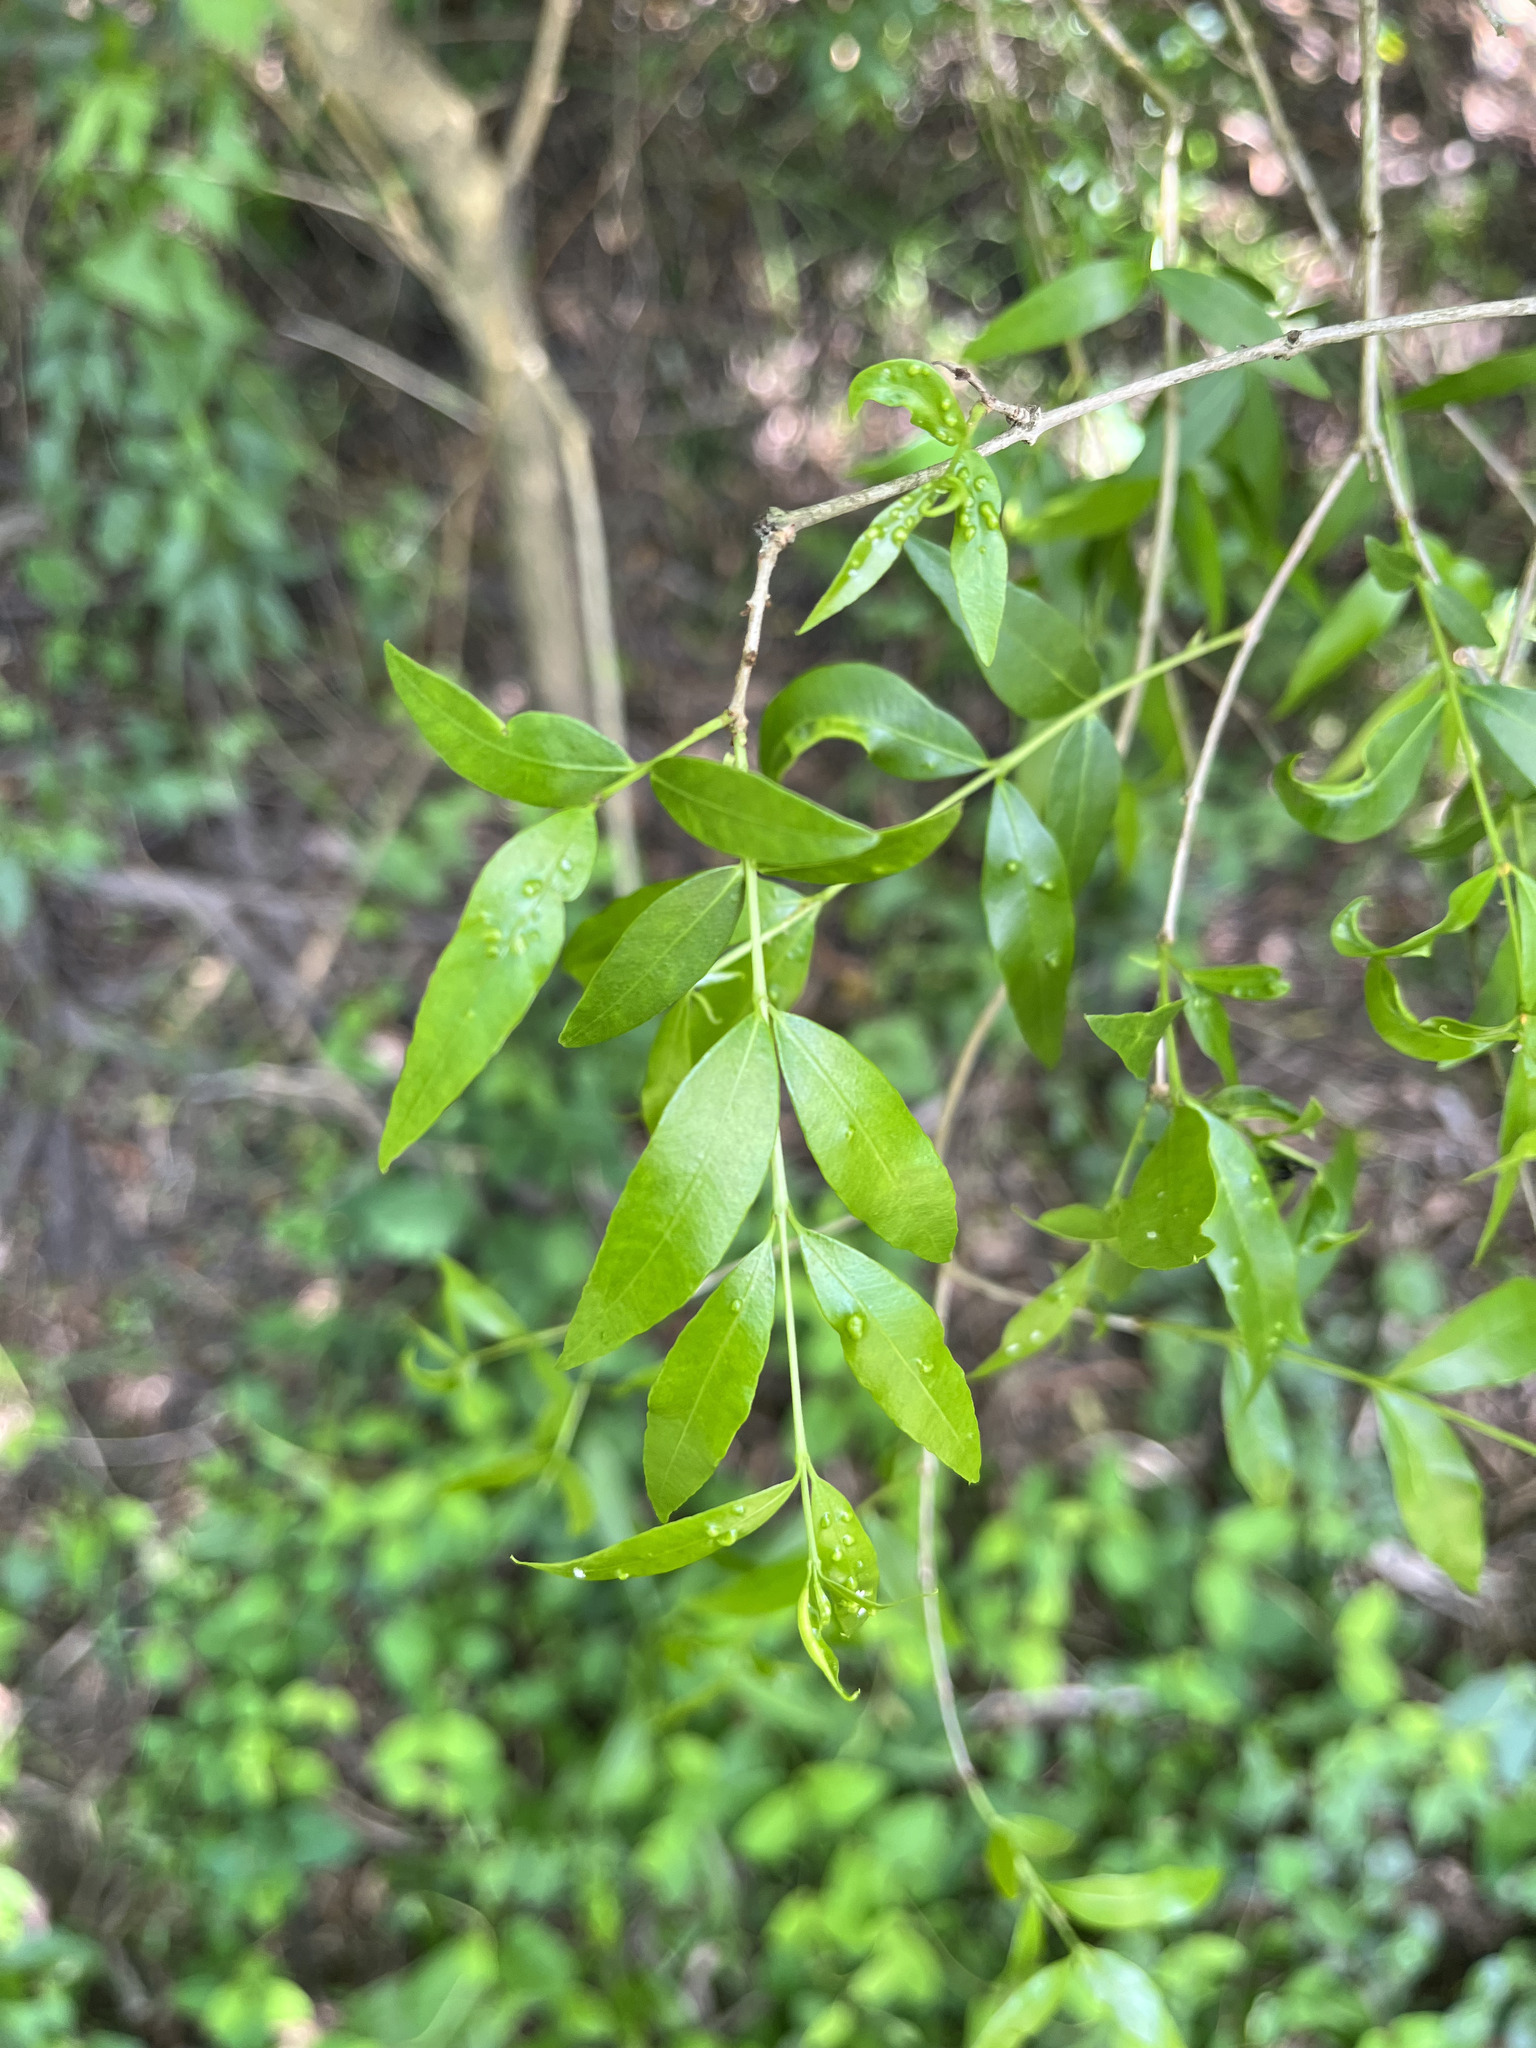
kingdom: Plantae
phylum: Tracheophyta
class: Magnoliopsida
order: Myrtales
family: Myrtaceae
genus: Blepharocalyx
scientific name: Blepharocalyx salicifolius
